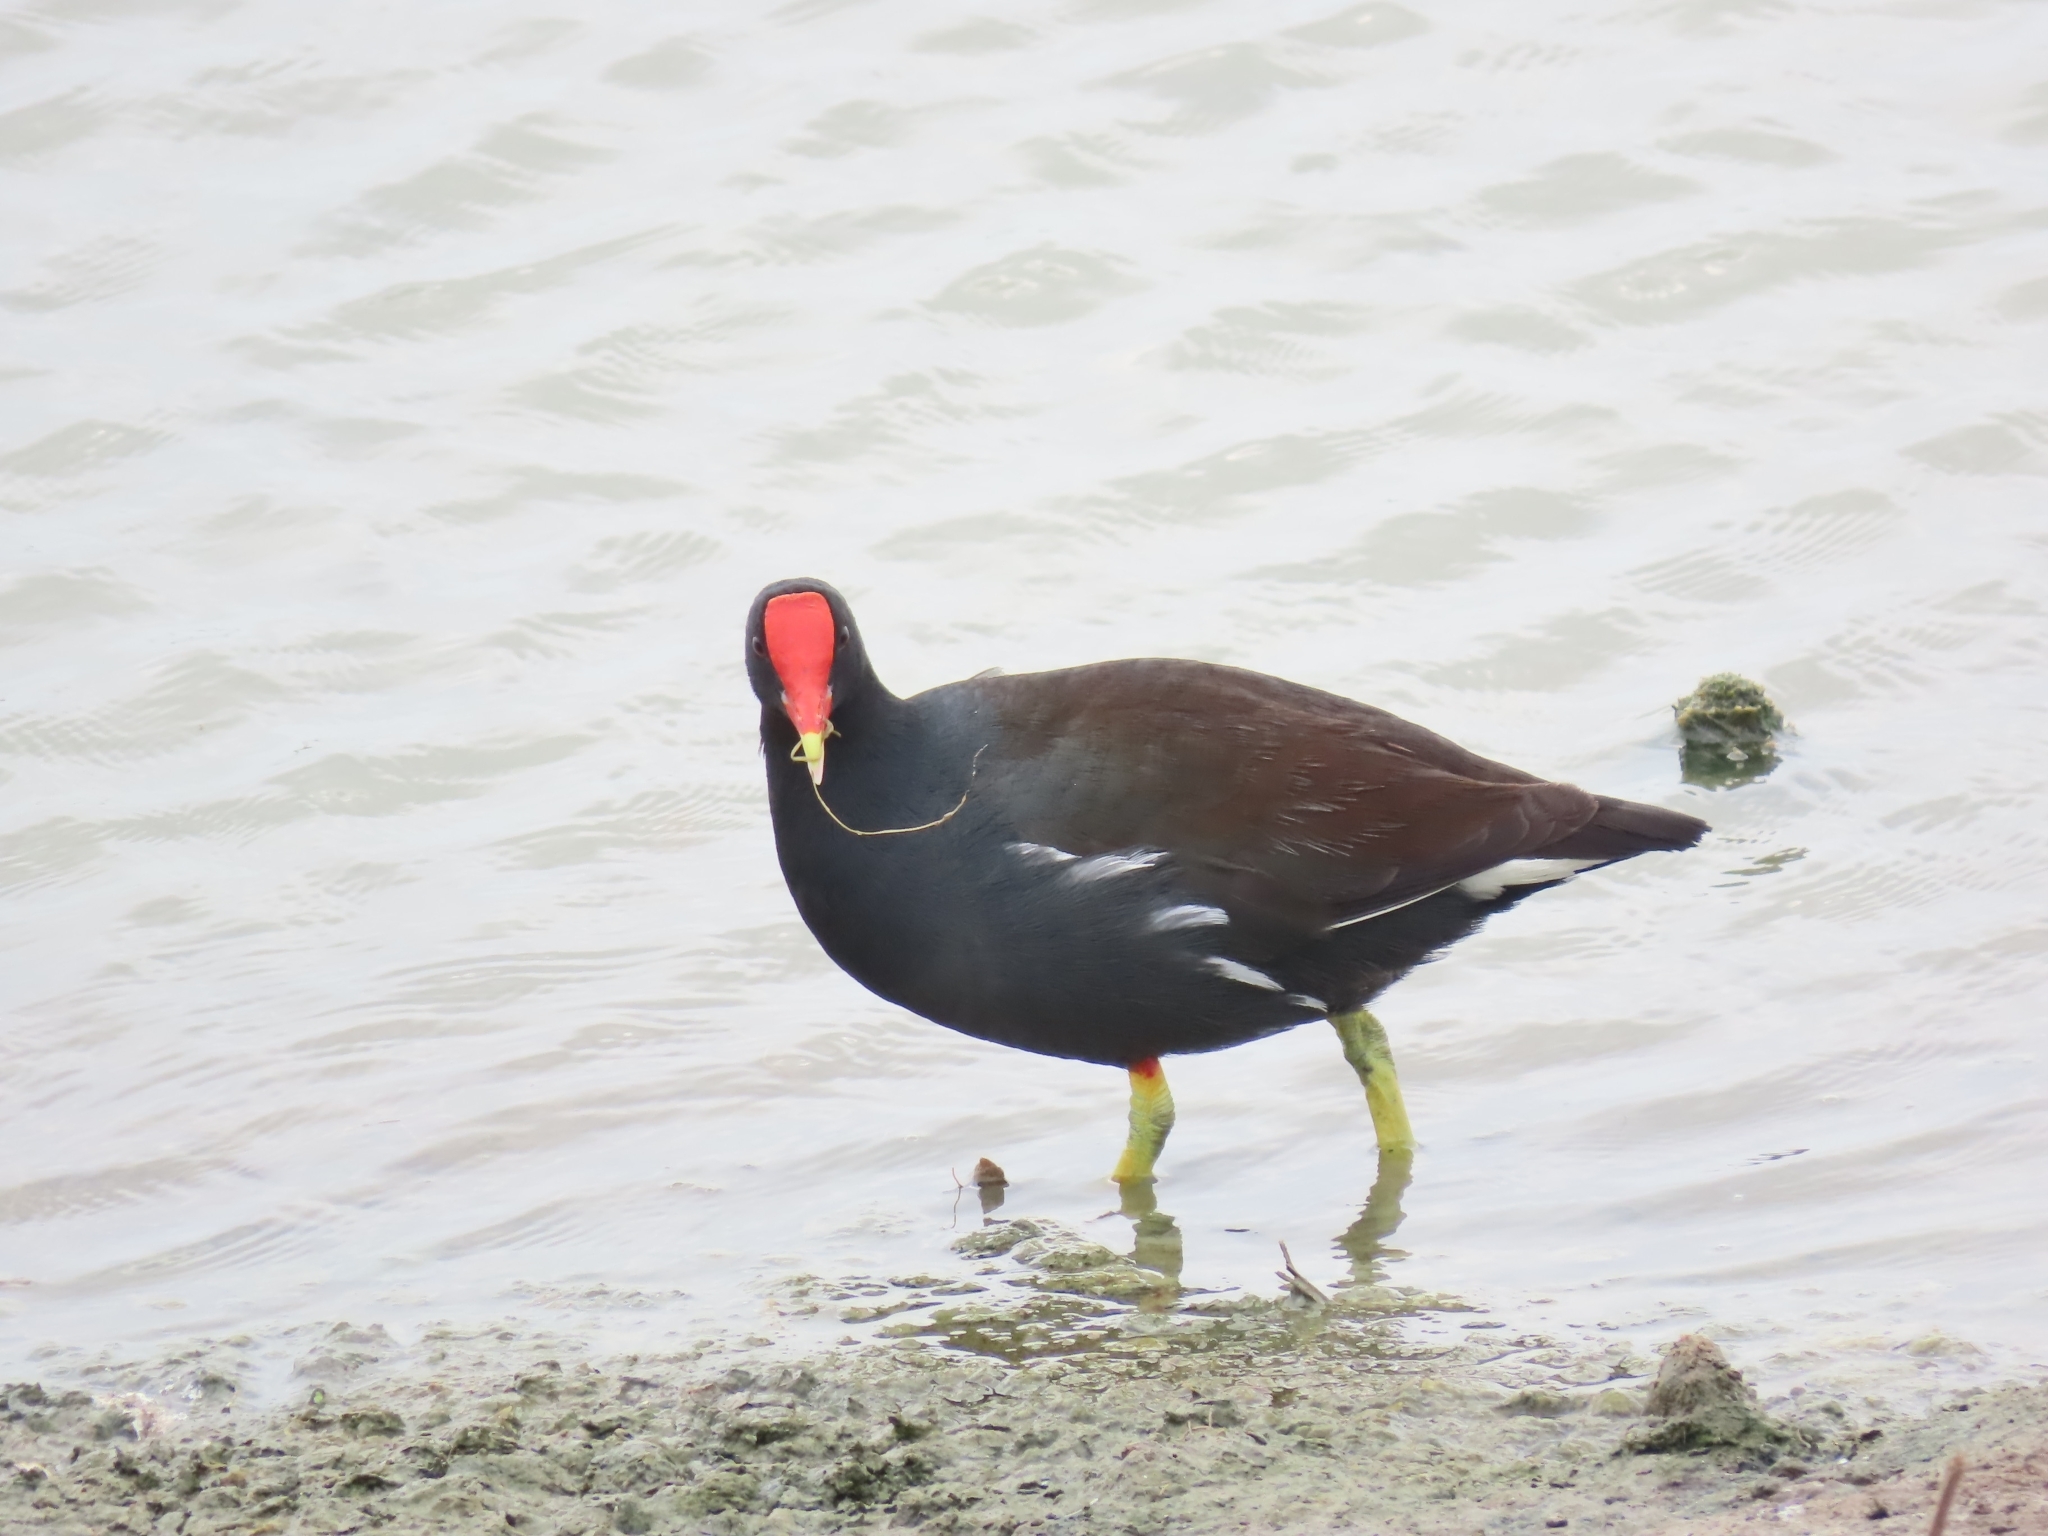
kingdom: Animalia
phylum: Chordata
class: Aves
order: Gruiformes
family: Rallidae
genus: Gallinula
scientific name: Gallinula chloropus
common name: Common moorhen
